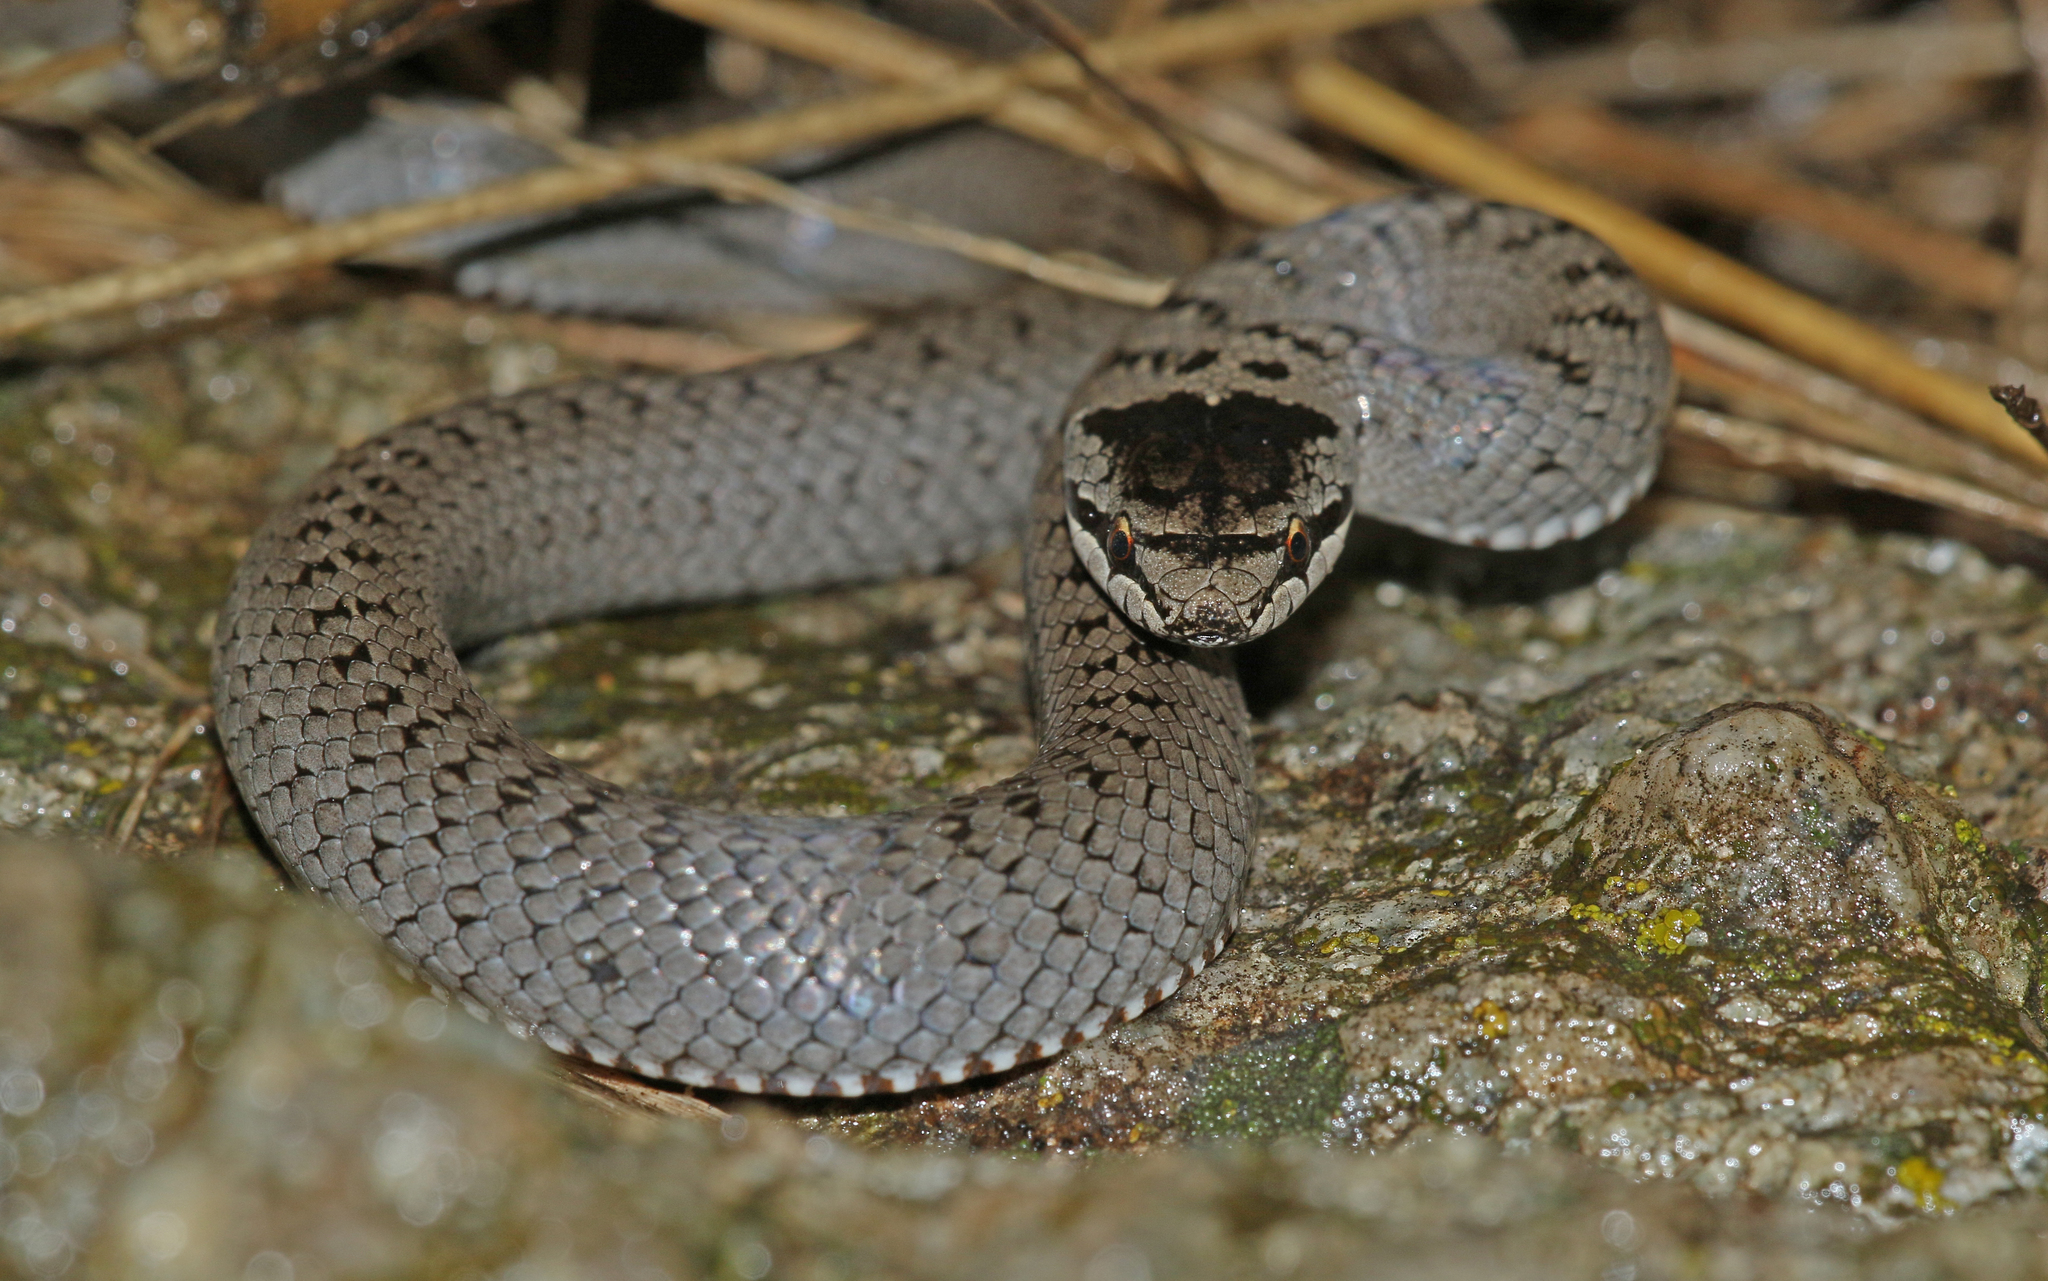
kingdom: Animalia
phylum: Chordata
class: Squamata
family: Colubridae
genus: Coronella
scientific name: Coronella austriaca
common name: Smooth snake
